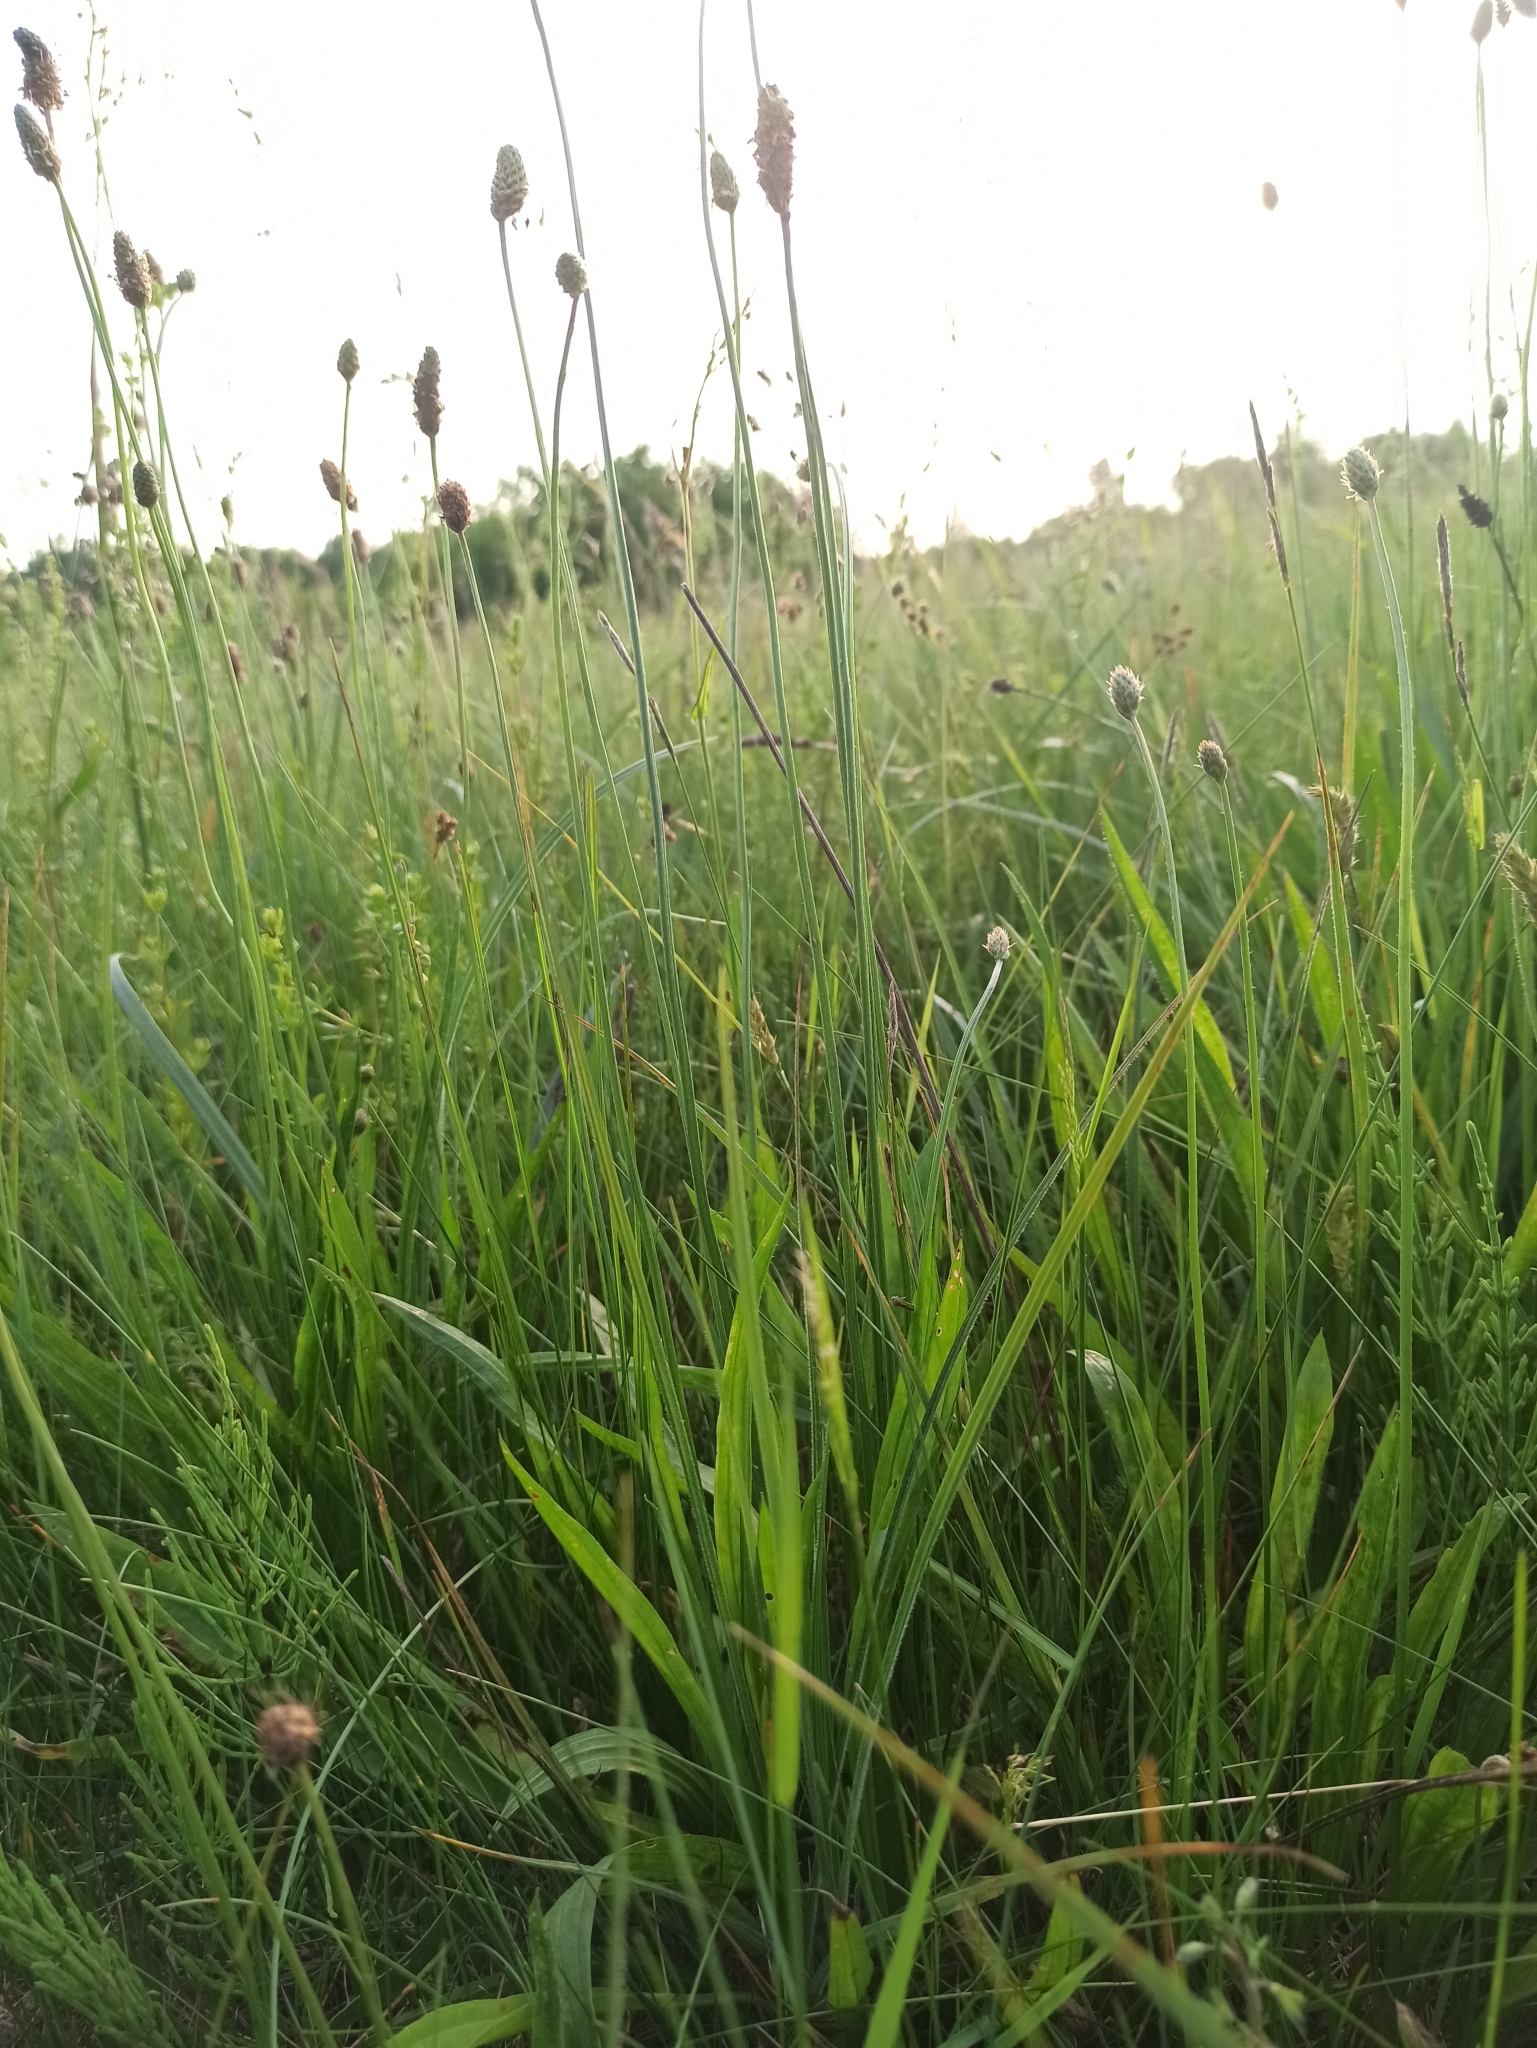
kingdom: Plantae
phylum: Tracheophyta
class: Magnoliopsida
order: Lamiales
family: Plantaginaceae
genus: Plantago
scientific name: Plantago lanceolata
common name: Ribwort plantain
